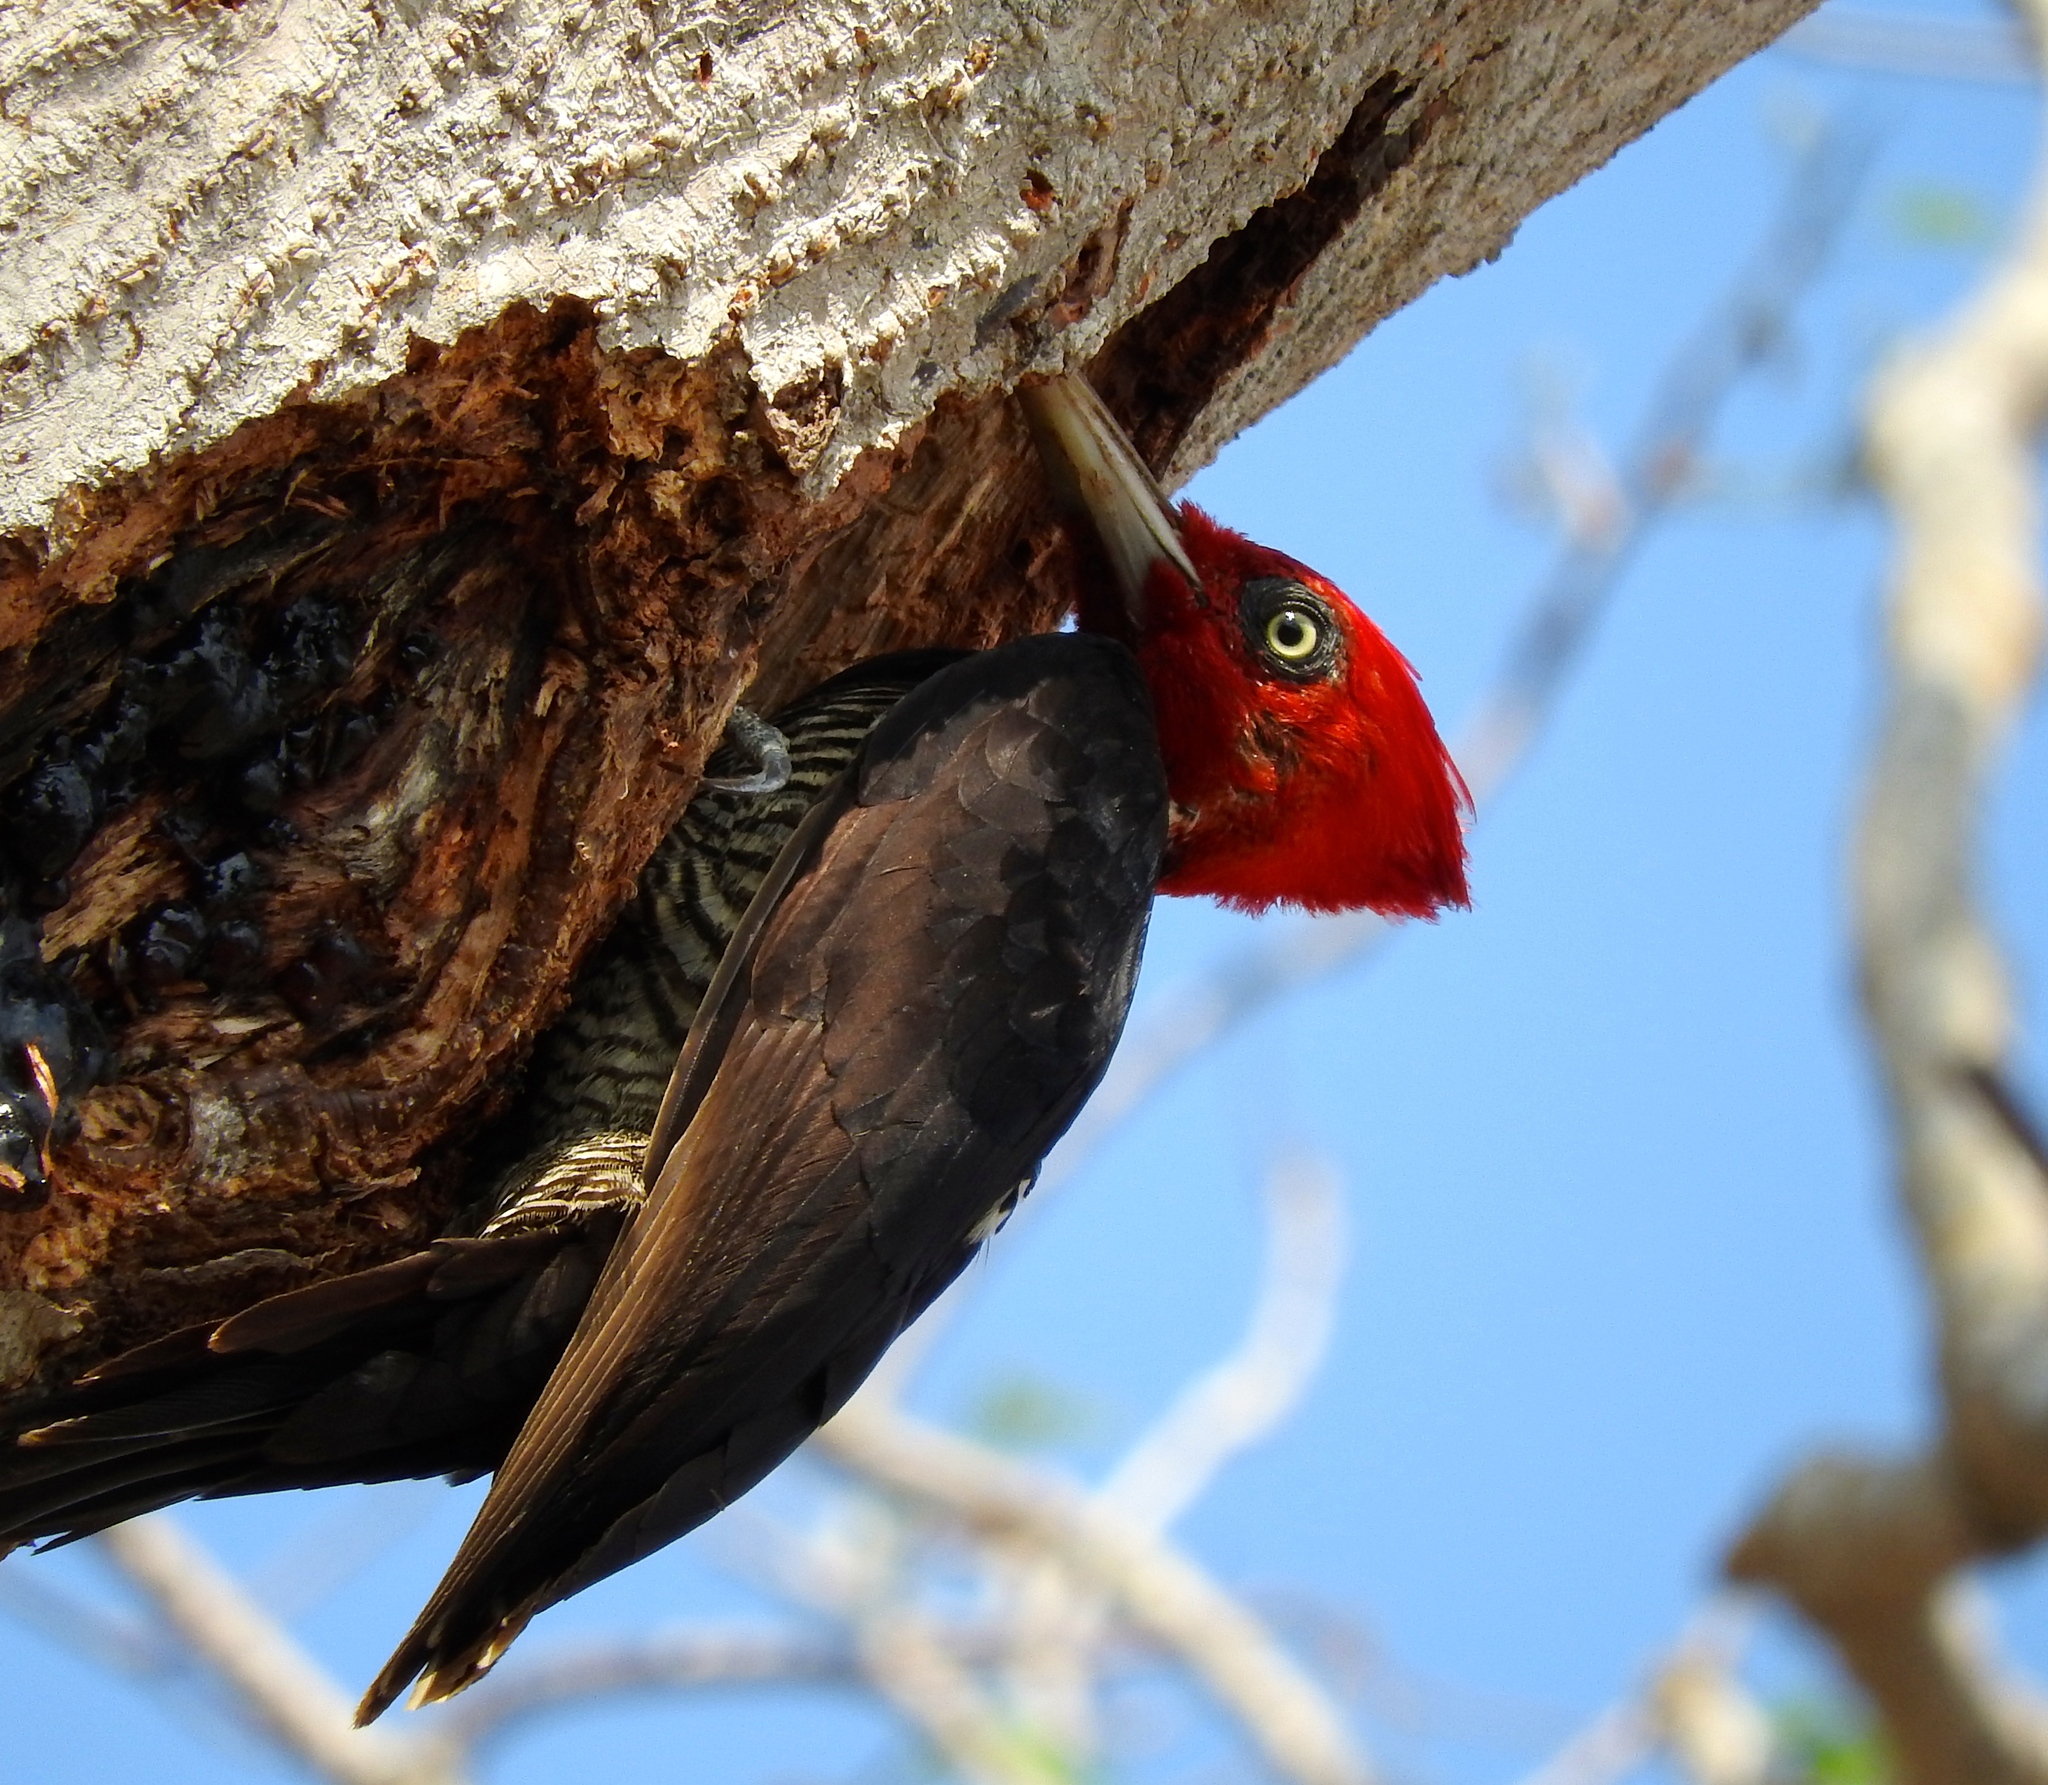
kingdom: Animalia
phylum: Chordata
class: Aves
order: Piciformes
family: Picidae
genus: Campephilus
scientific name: Campephilus guatemalensis
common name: Pale-billed woodpecker
